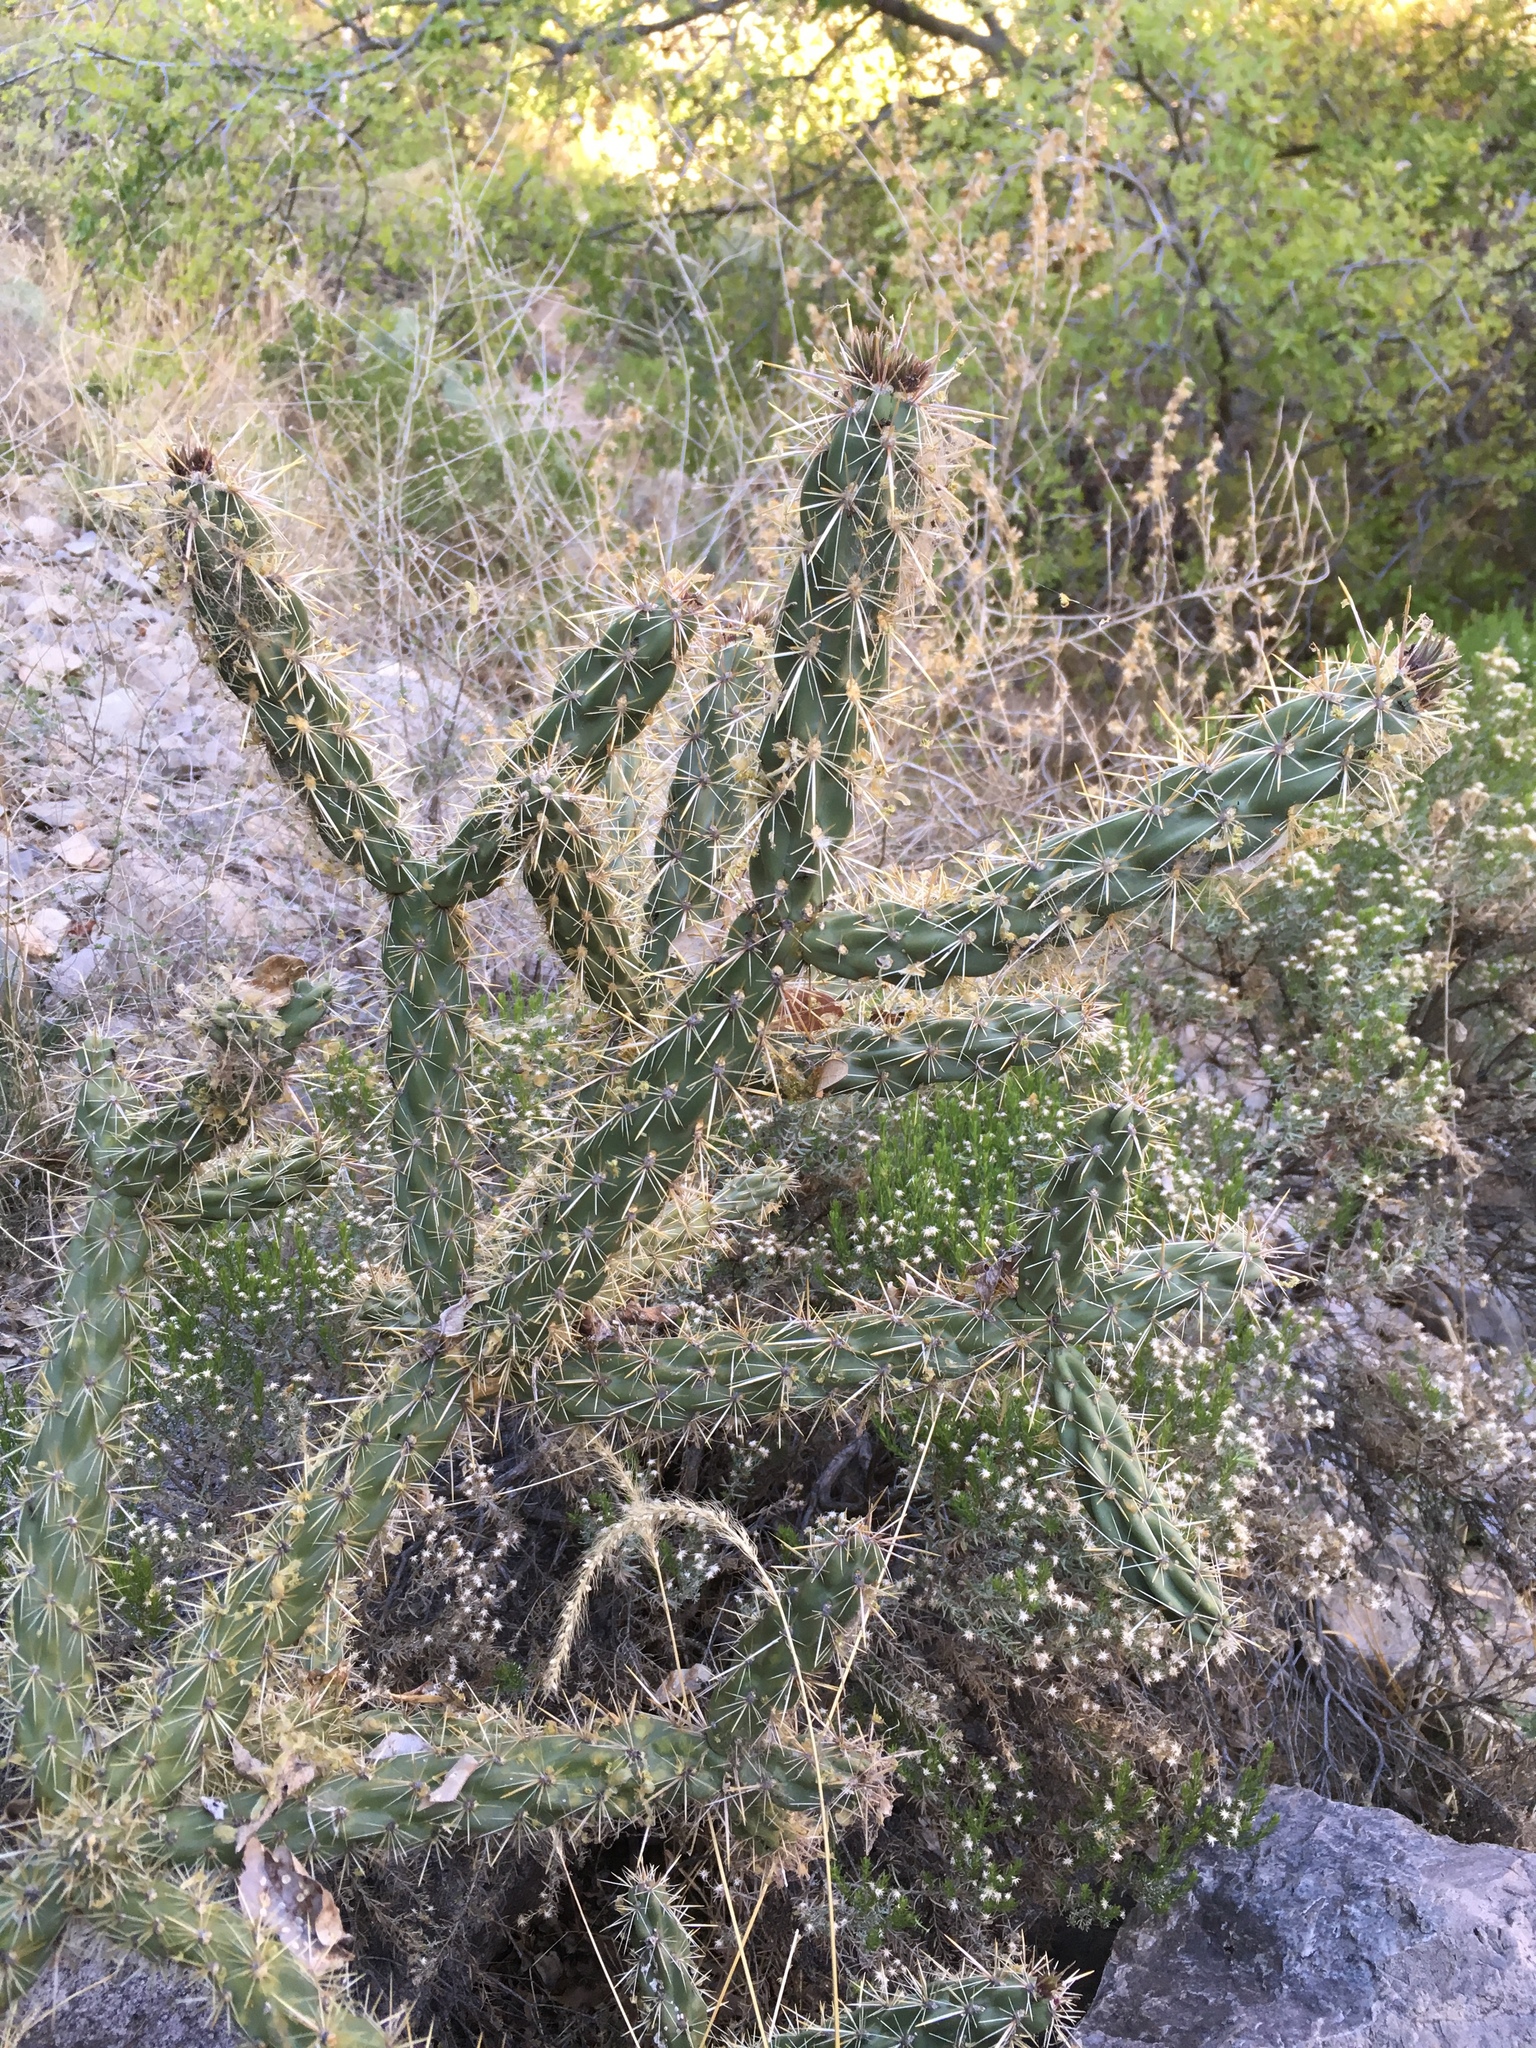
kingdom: Plantae
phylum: Tracheophyta
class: Magnoliopsida
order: Caryophyllales
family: Cactaceae
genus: Cylindropuntia
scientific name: Cylindropuntia imbricata
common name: Candelabrum cactus
